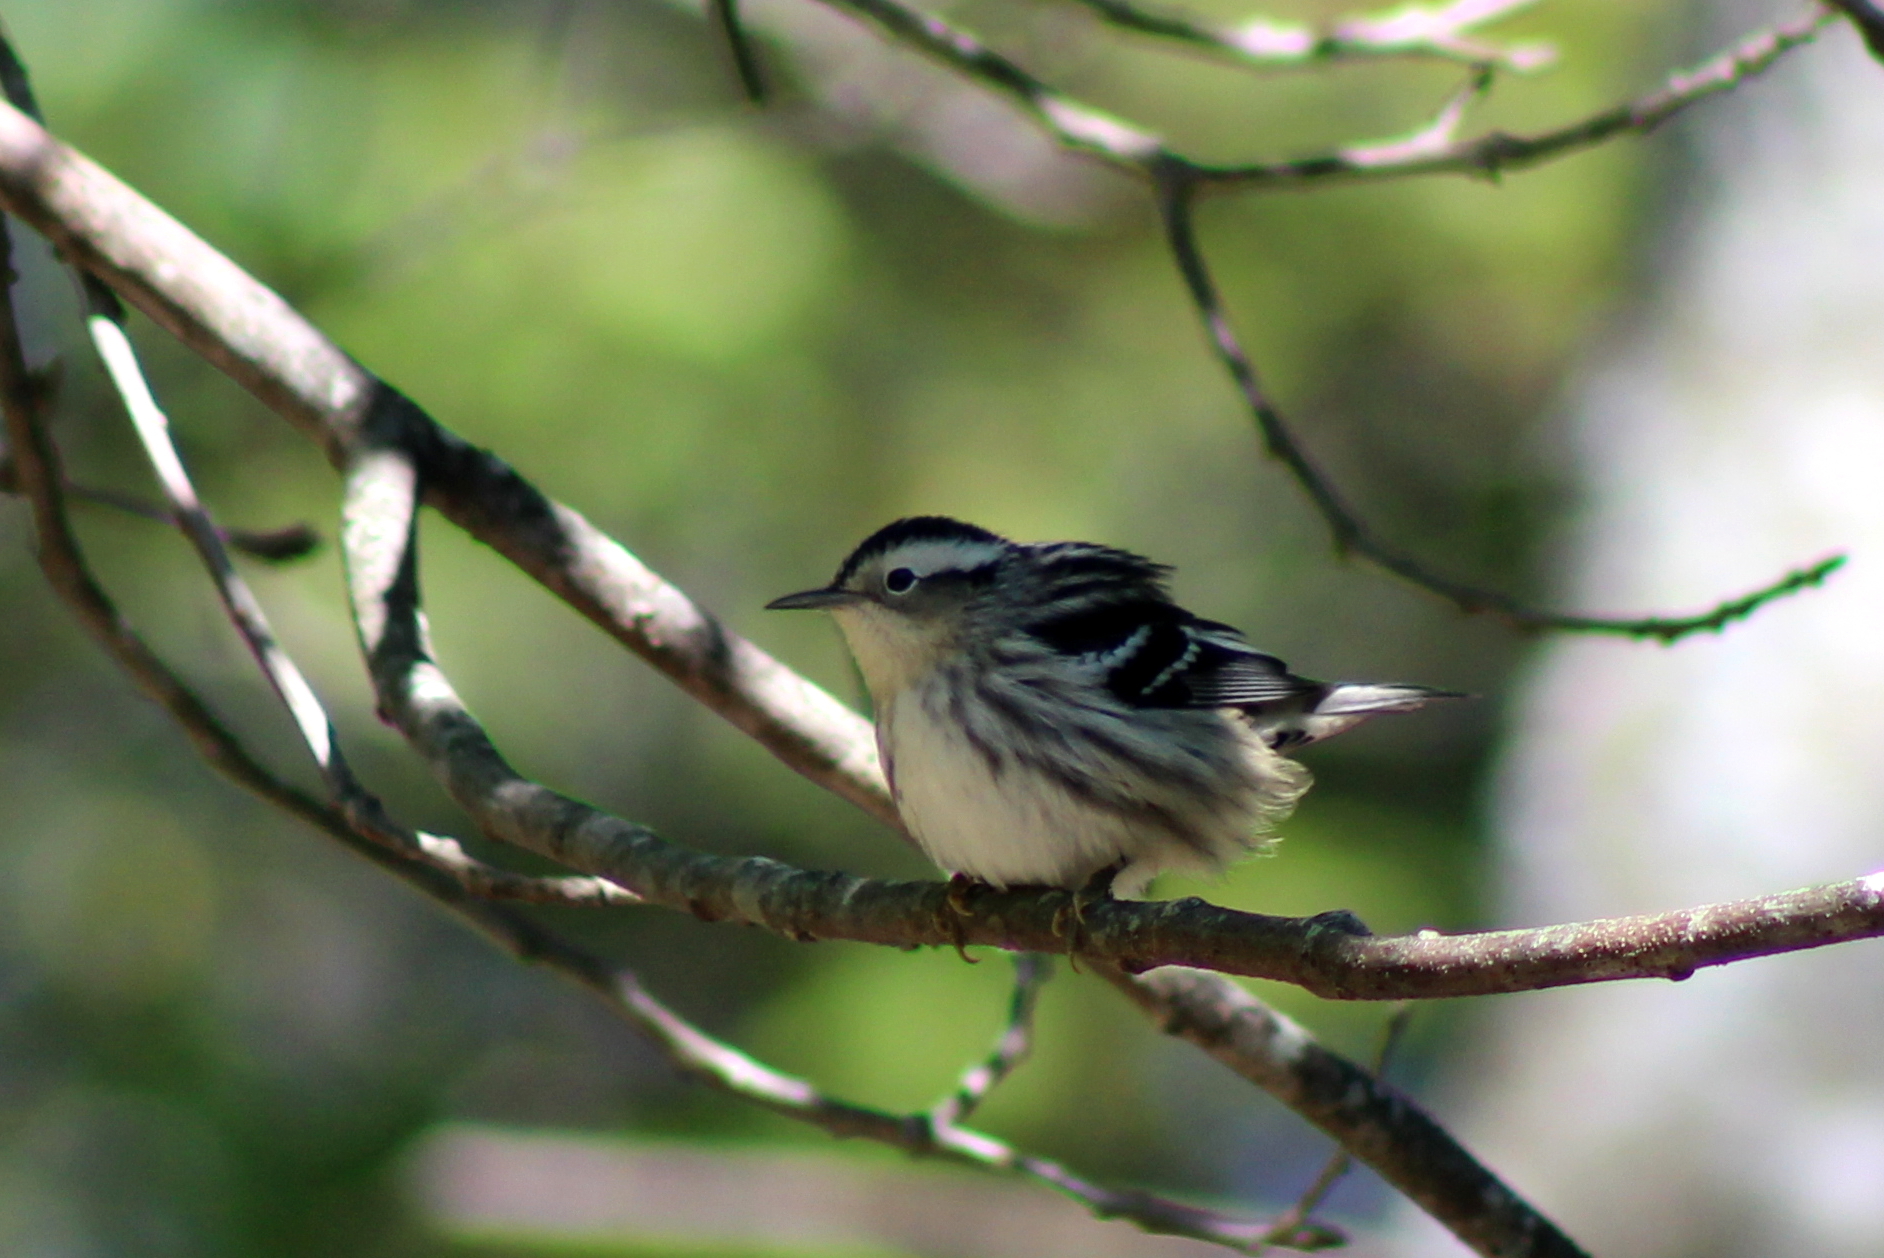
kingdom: Animalia
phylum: Chordata
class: Aves
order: Passeriformes
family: Parulidae
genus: Mniotilta
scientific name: Mniotilta varia
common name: Black-and-white warbler
